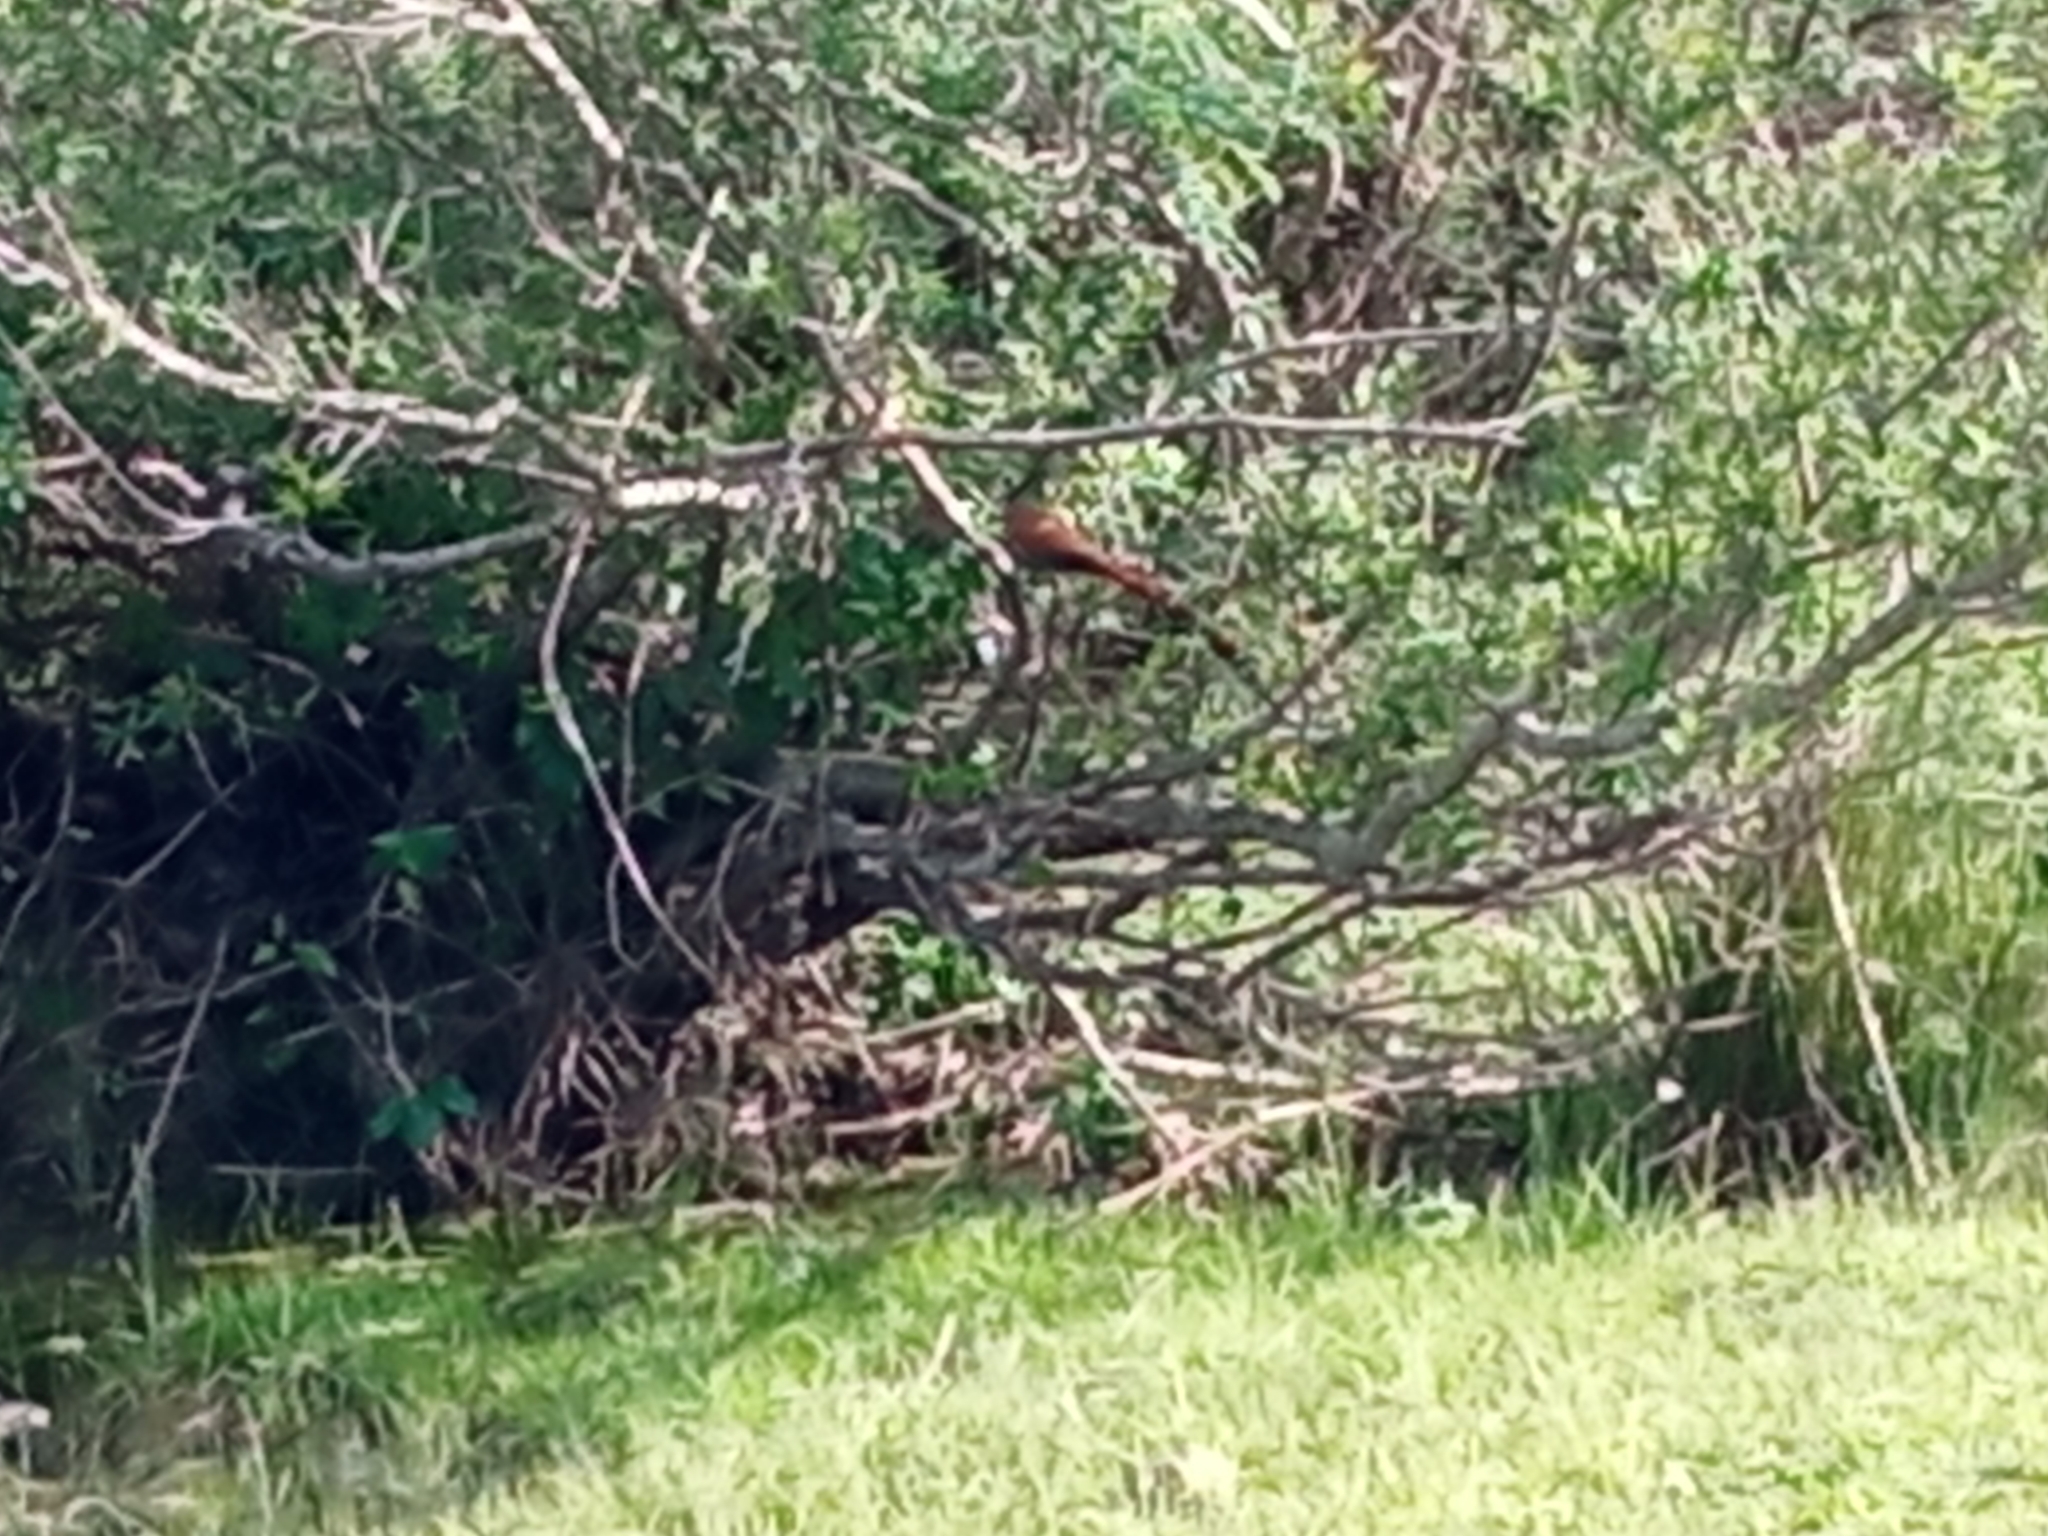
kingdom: Animalia
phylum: Chordata
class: Aves
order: Cuculiformes
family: Cuculidae
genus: Piaya
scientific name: Piaya cayana
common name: Squirrel cuckoo
